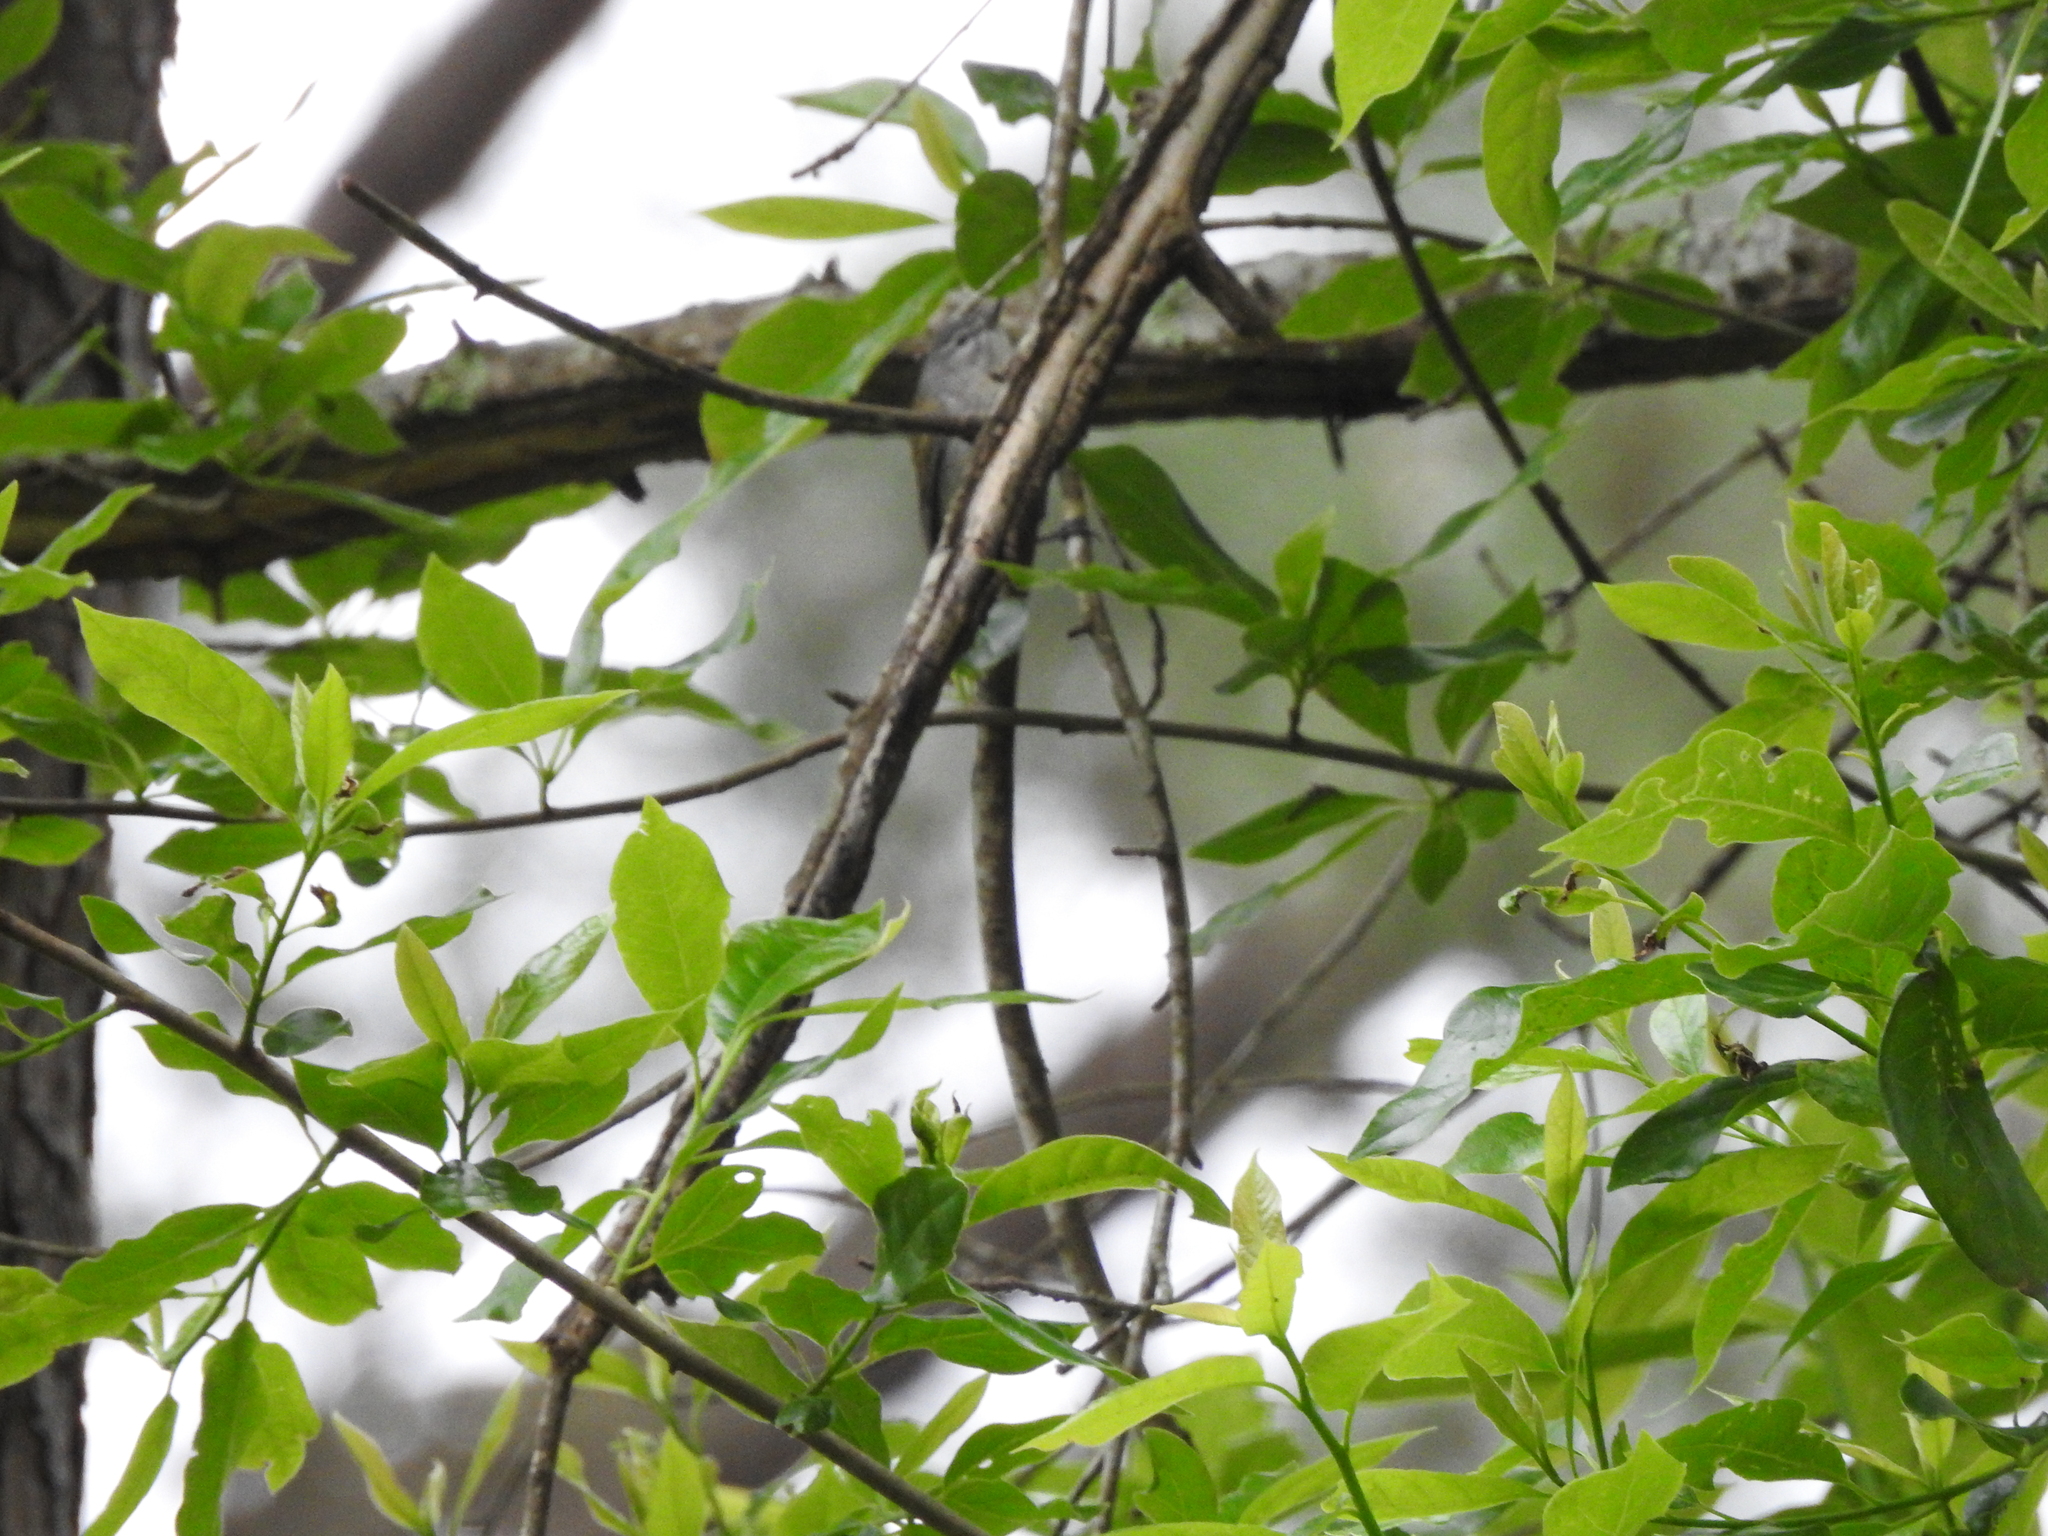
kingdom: Animalia
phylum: Chordata
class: Aves
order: Passeriformes
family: Parulidae
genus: Leiothlypis
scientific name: Leiothlypis peregrina
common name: Tennessee warbler
